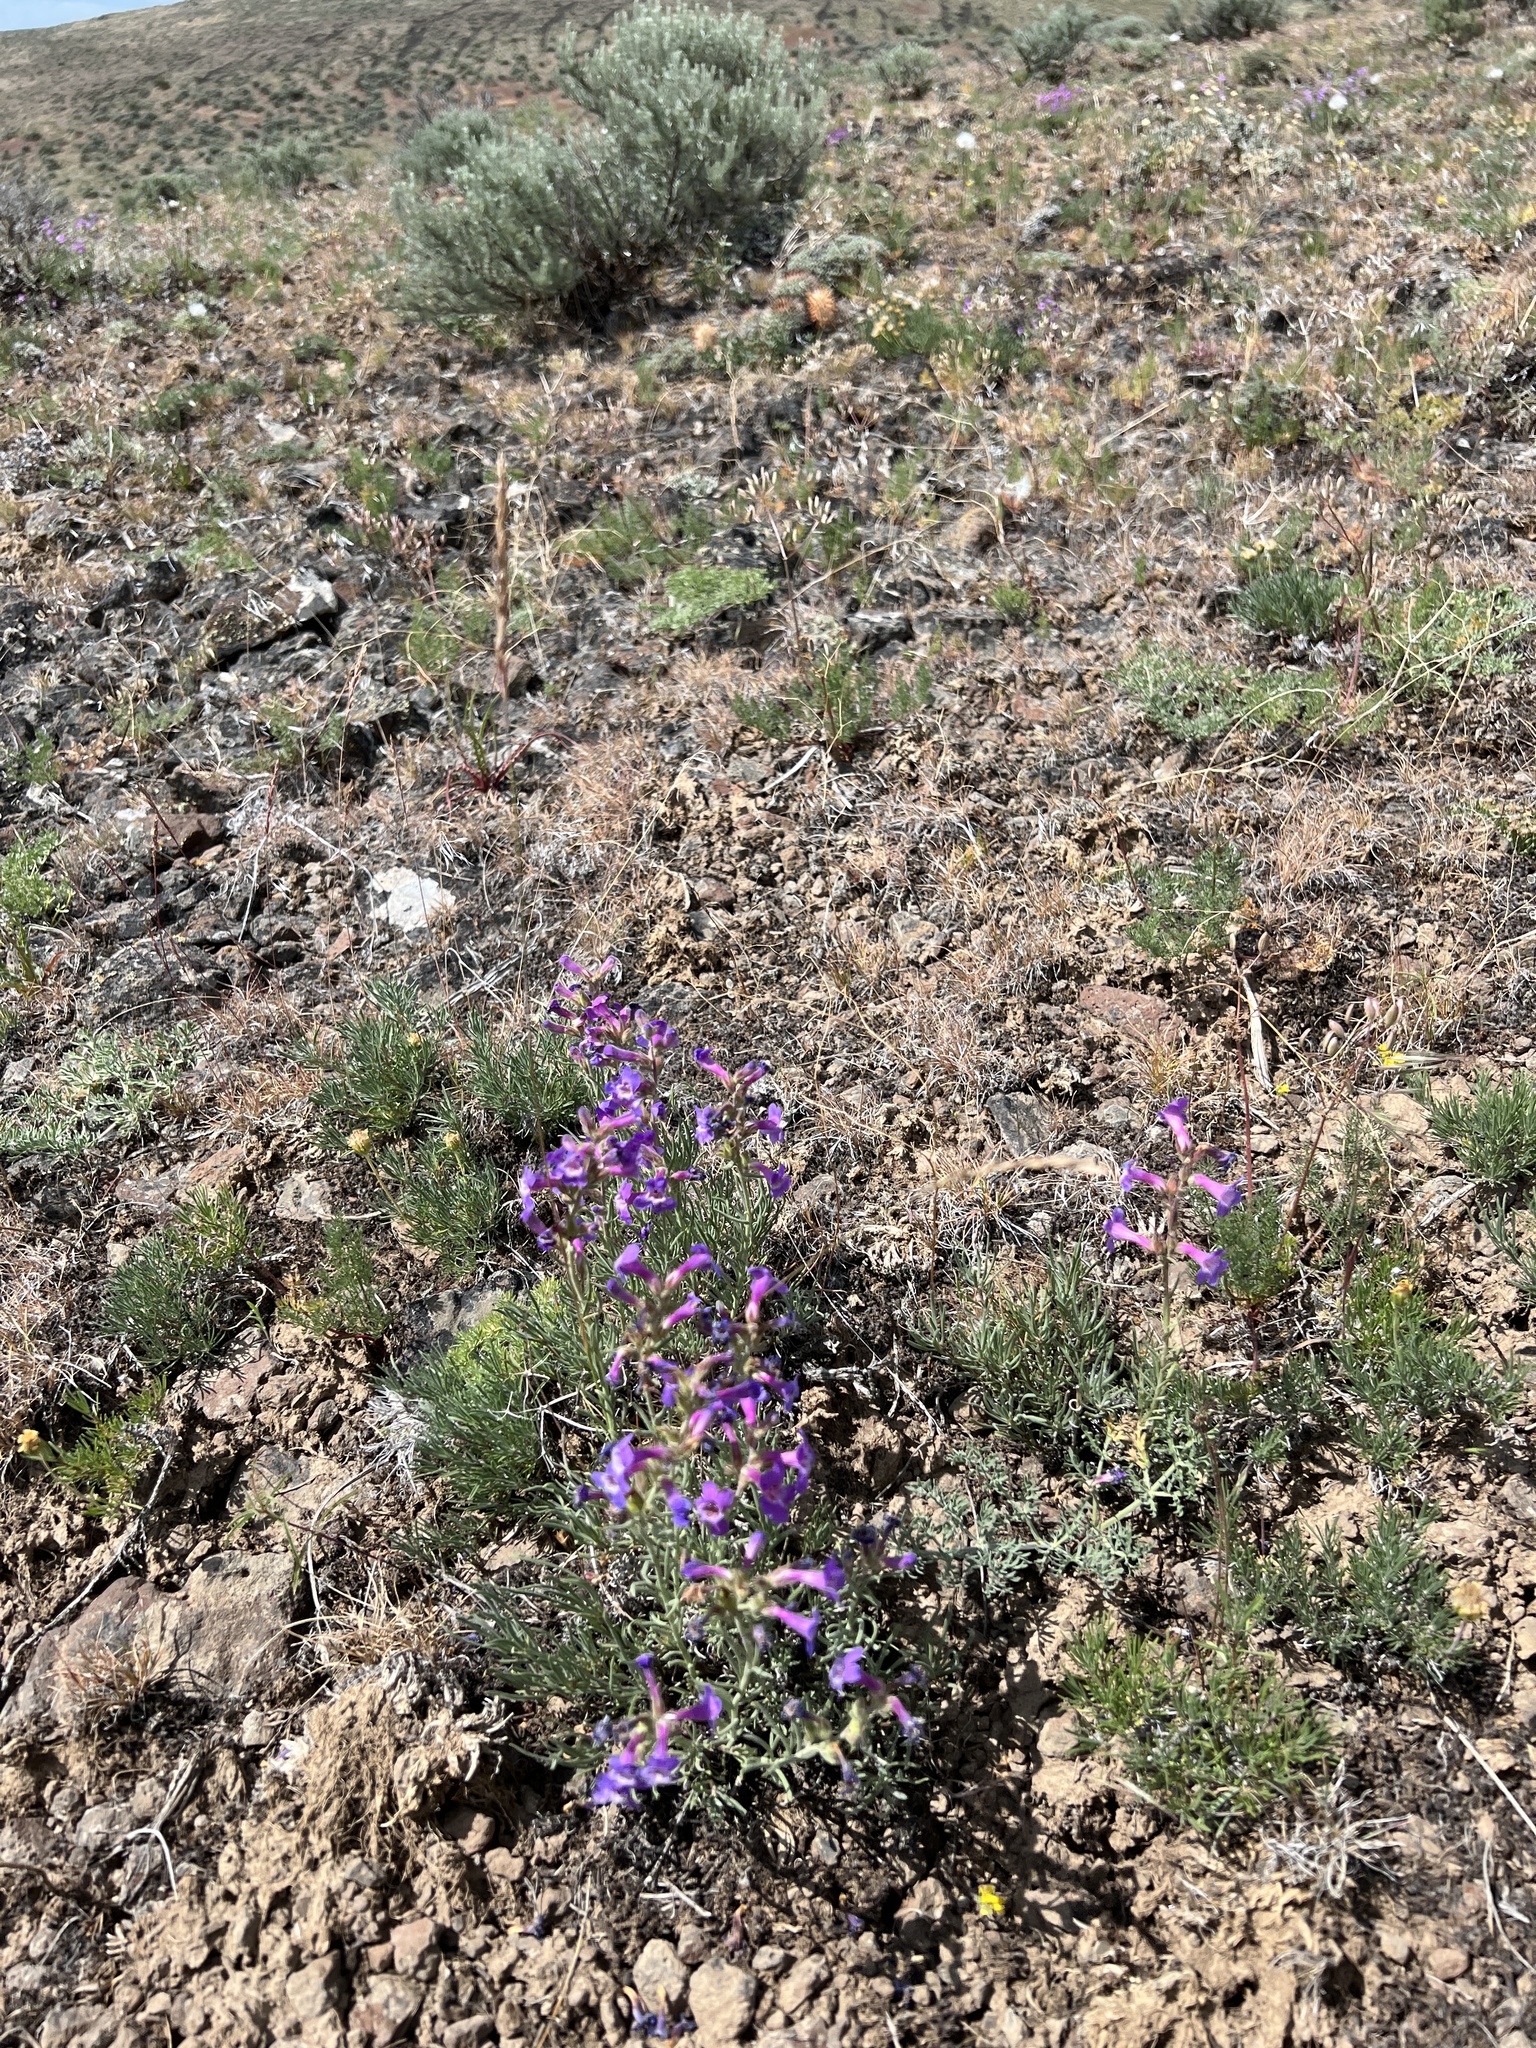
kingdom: Plantae
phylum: Tracheophyta
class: Magnoliopsida
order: Lamiales
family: Plantaginaceae
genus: Penstemon
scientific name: Penstemon gairdneri
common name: Gairdner's penstemon
